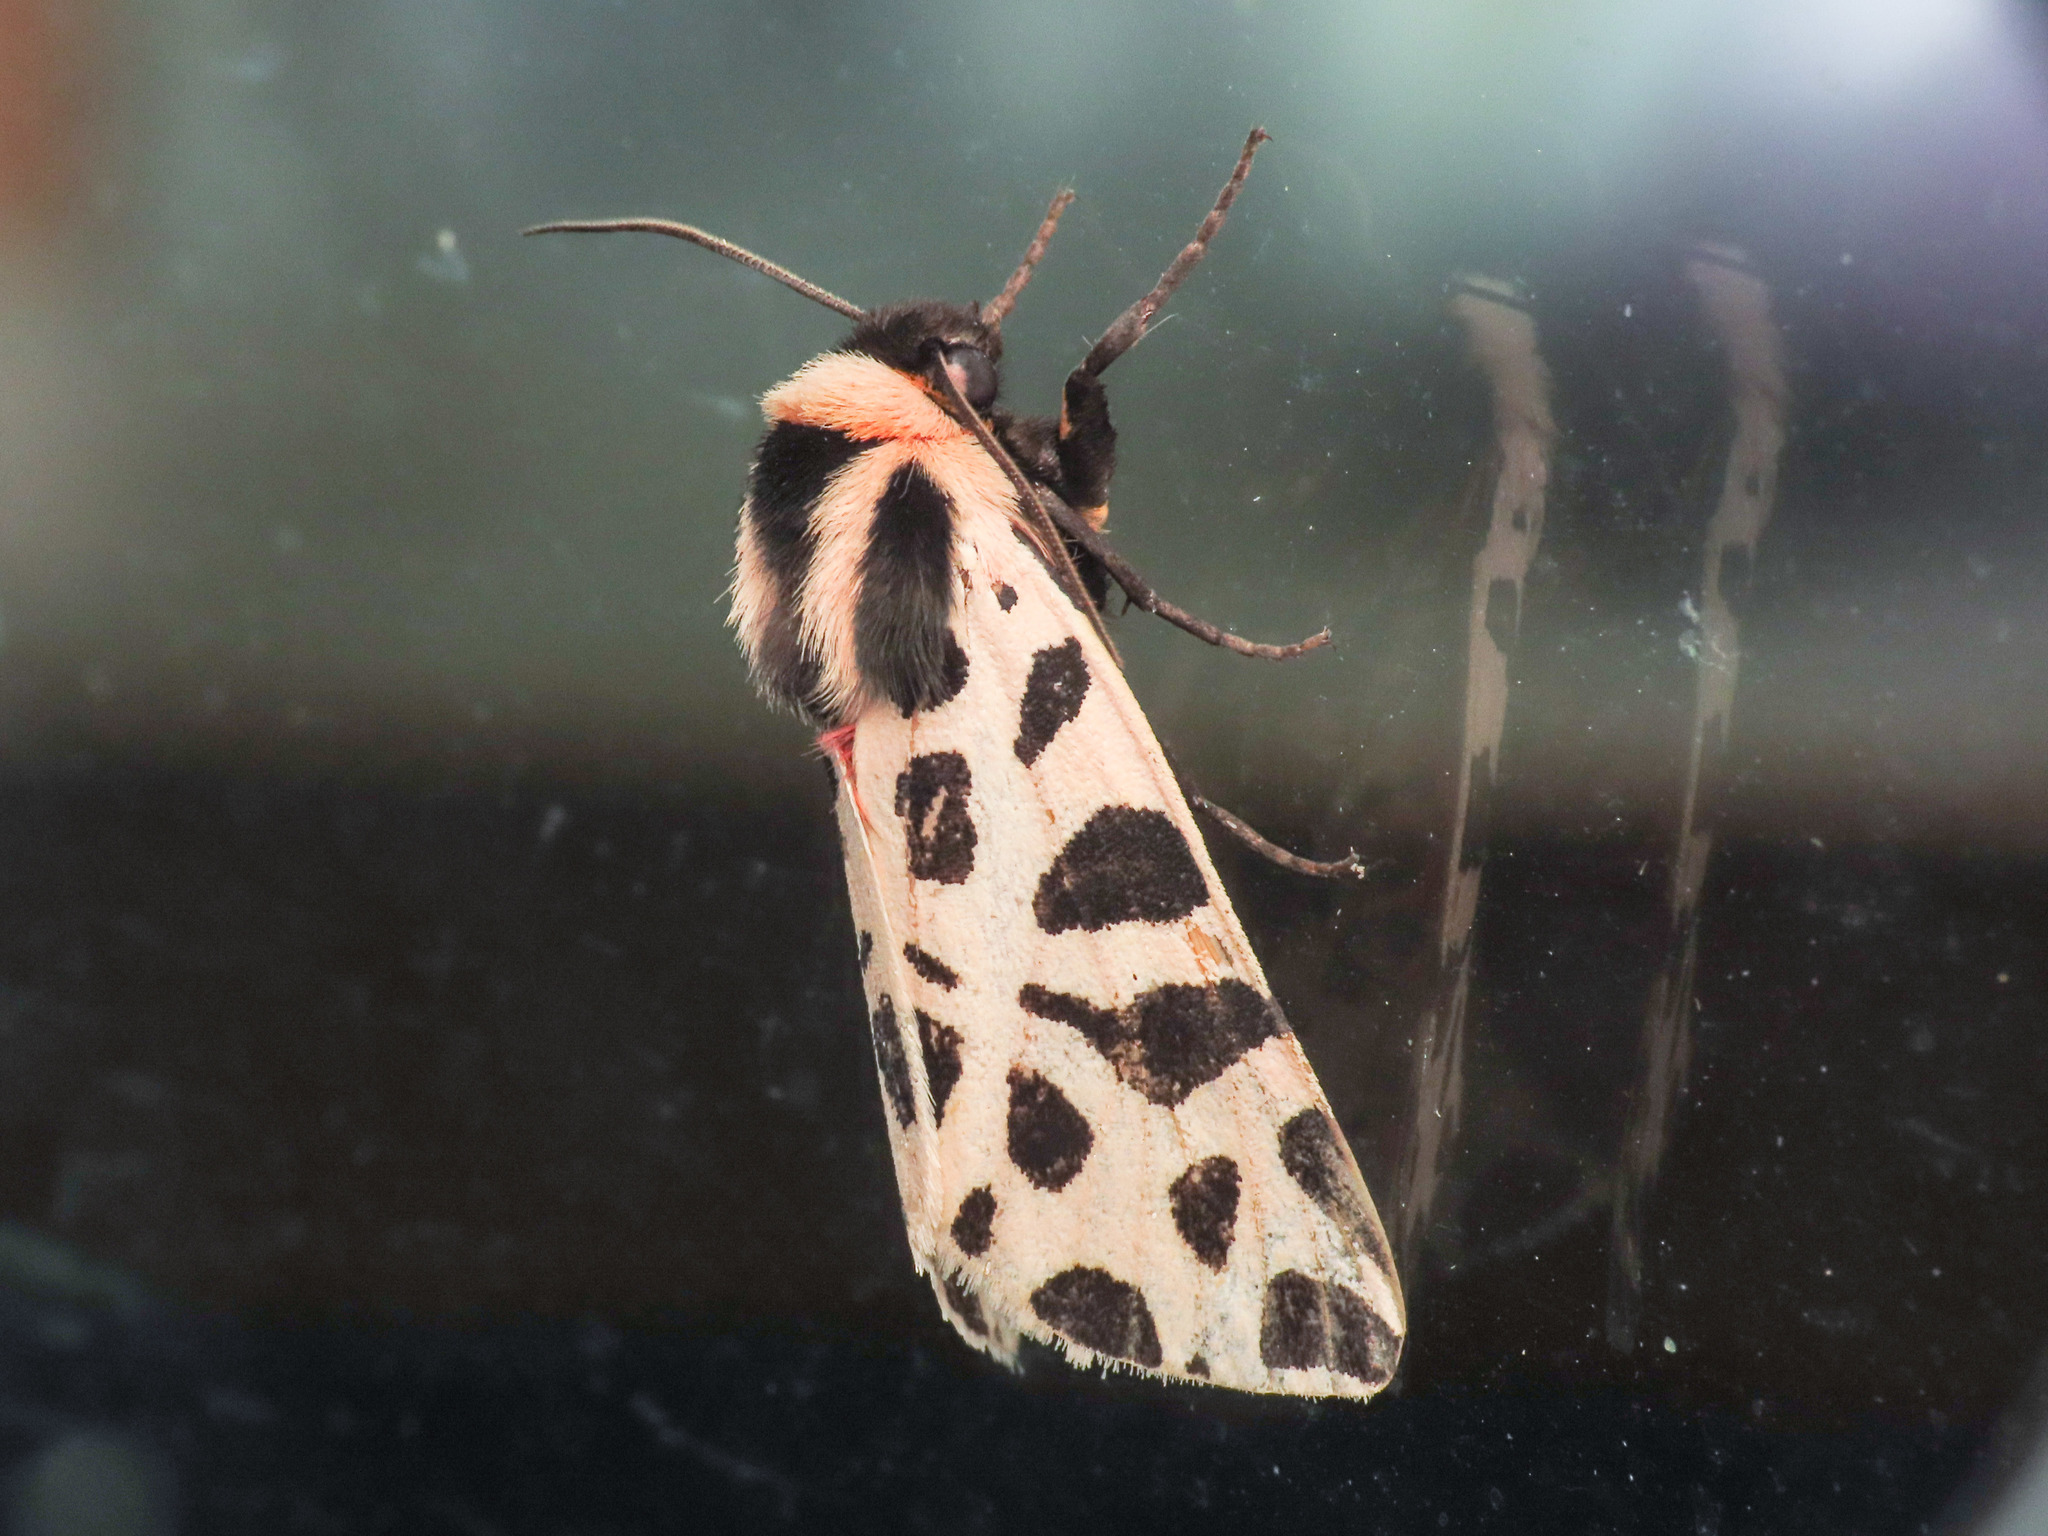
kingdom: Animalia
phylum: Arthropoda
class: Insecta
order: Lepidoptera
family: Erebidae
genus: Cymbalophora
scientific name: Cymbalophora pudica
